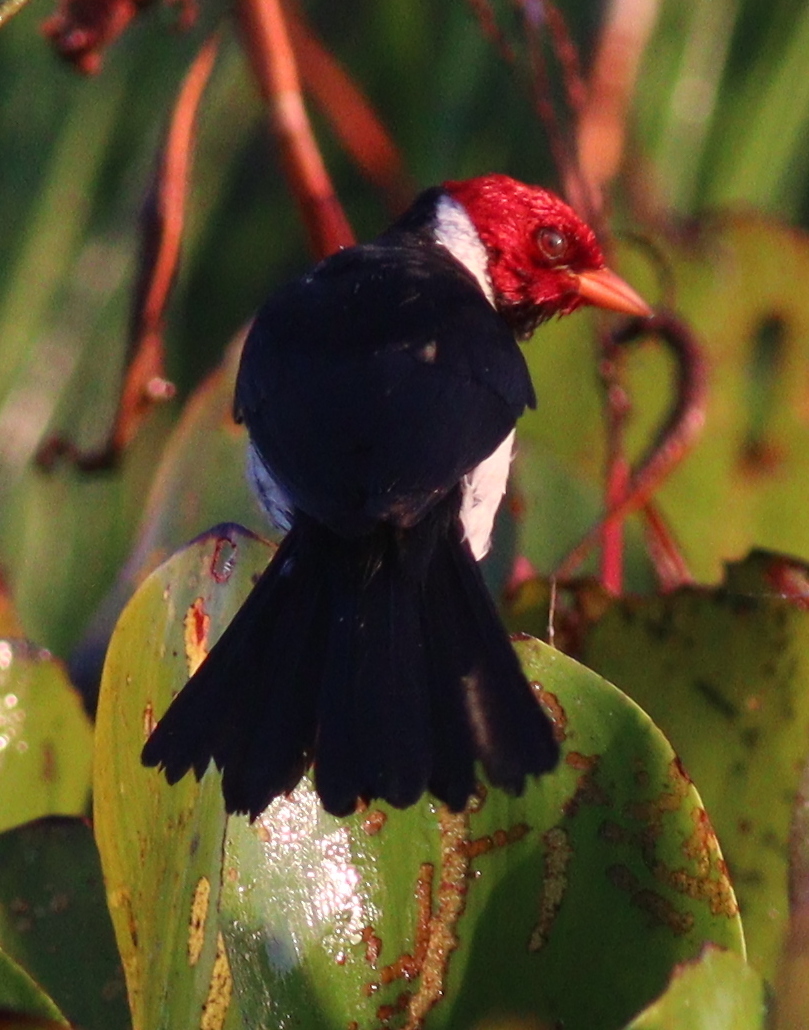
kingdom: Animalia
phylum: Chordata
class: Aves
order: Passeriformes
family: Thraupidae
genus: Paroaria
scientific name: Paroaria capitata
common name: Yellow-billed cardinal
